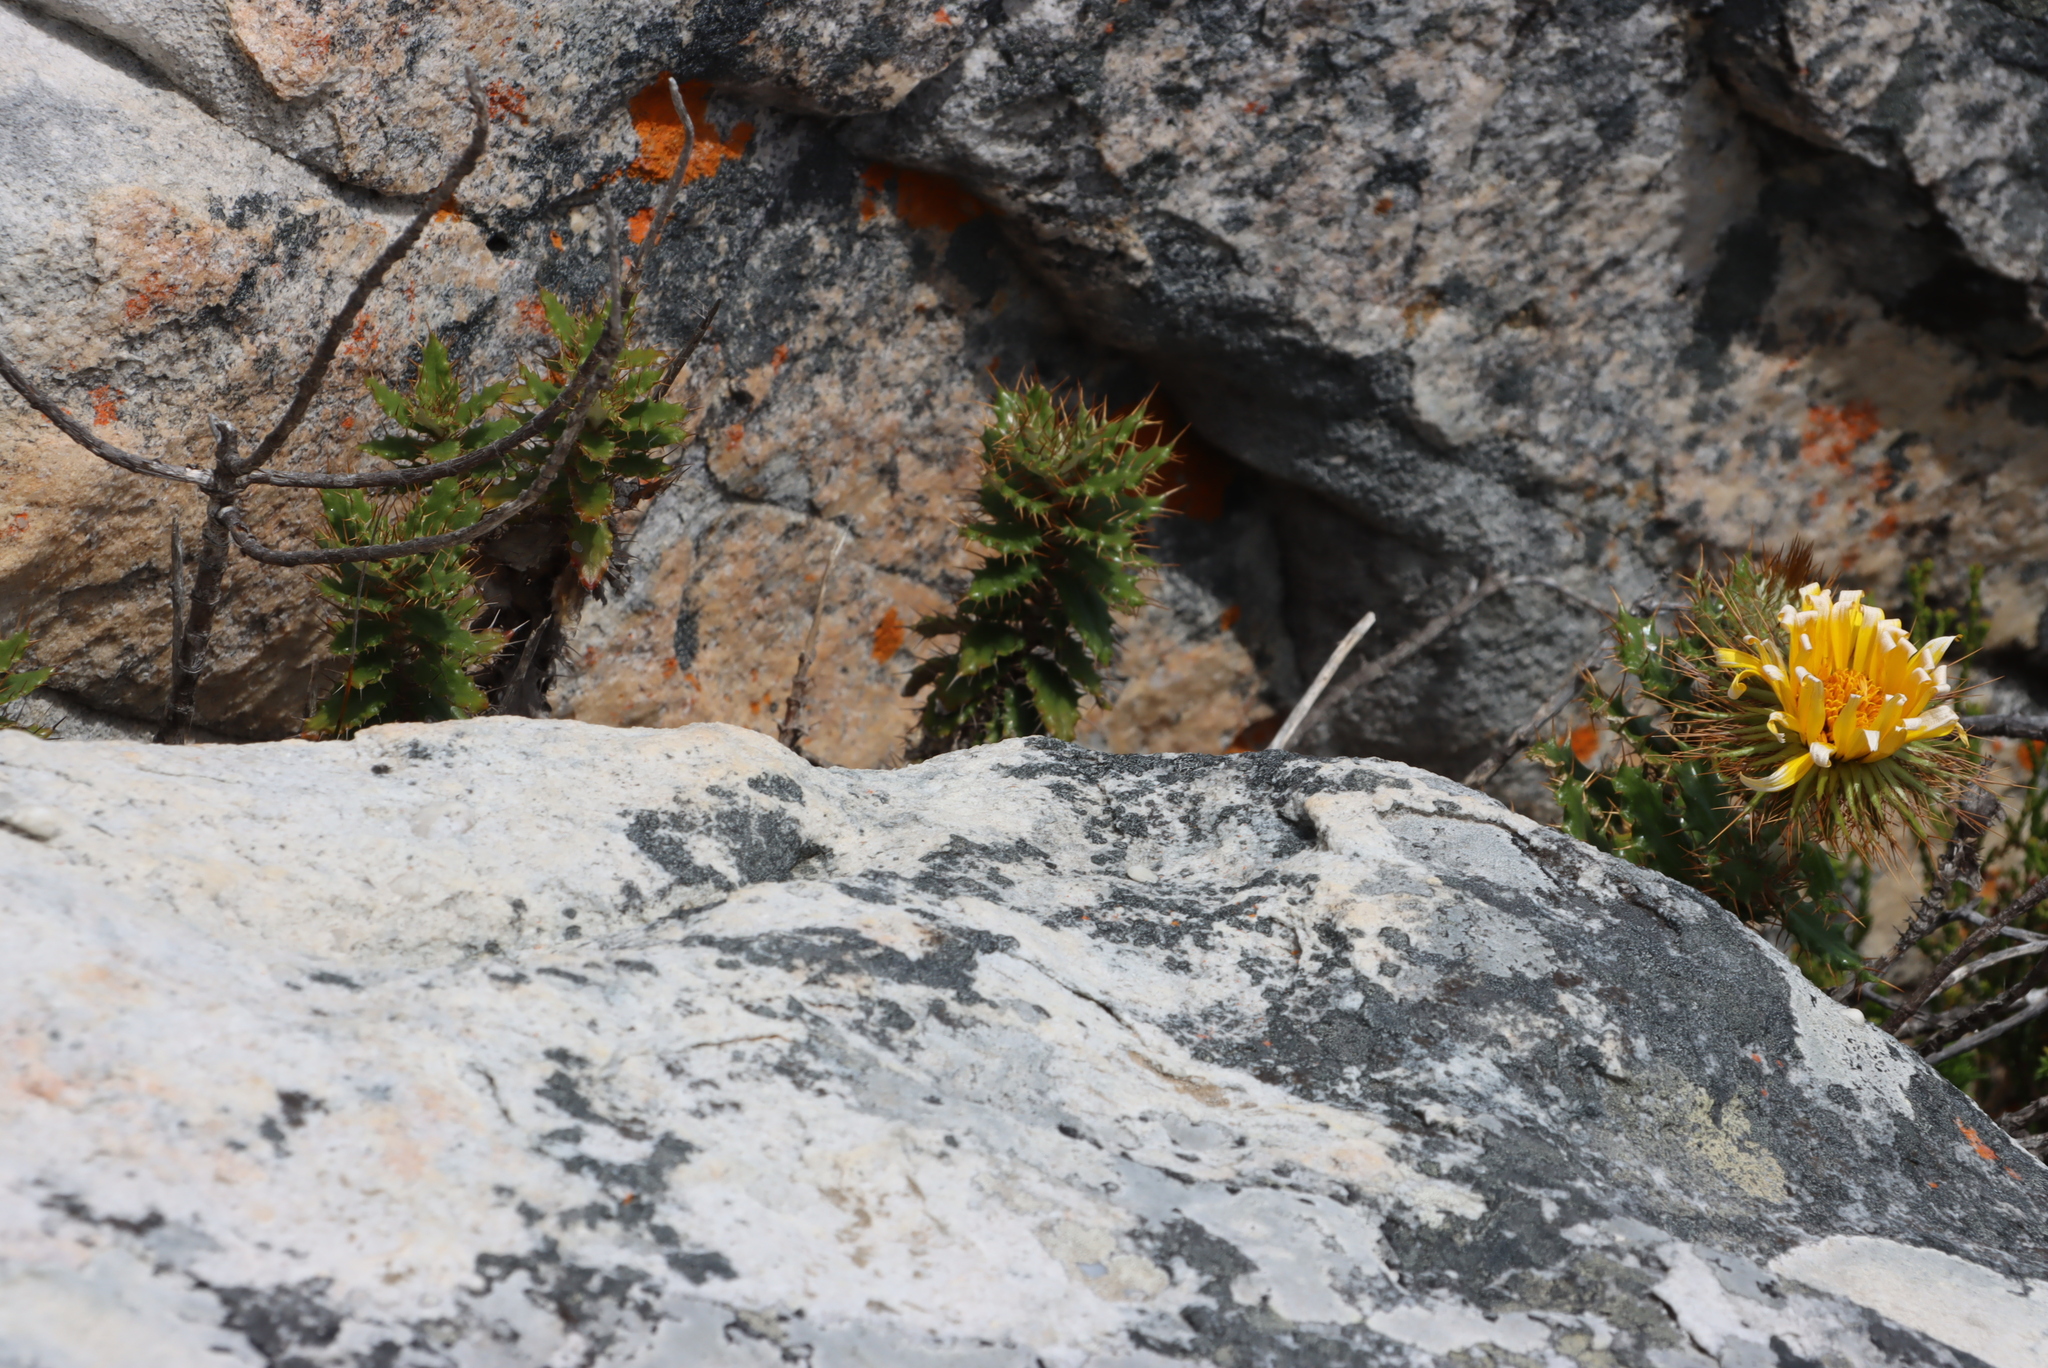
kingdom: Plantae
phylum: Tracheophyta
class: Magnoliopsida
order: Asterales
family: Asteraceae
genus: Berkheya
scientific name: Berkheya barbata
